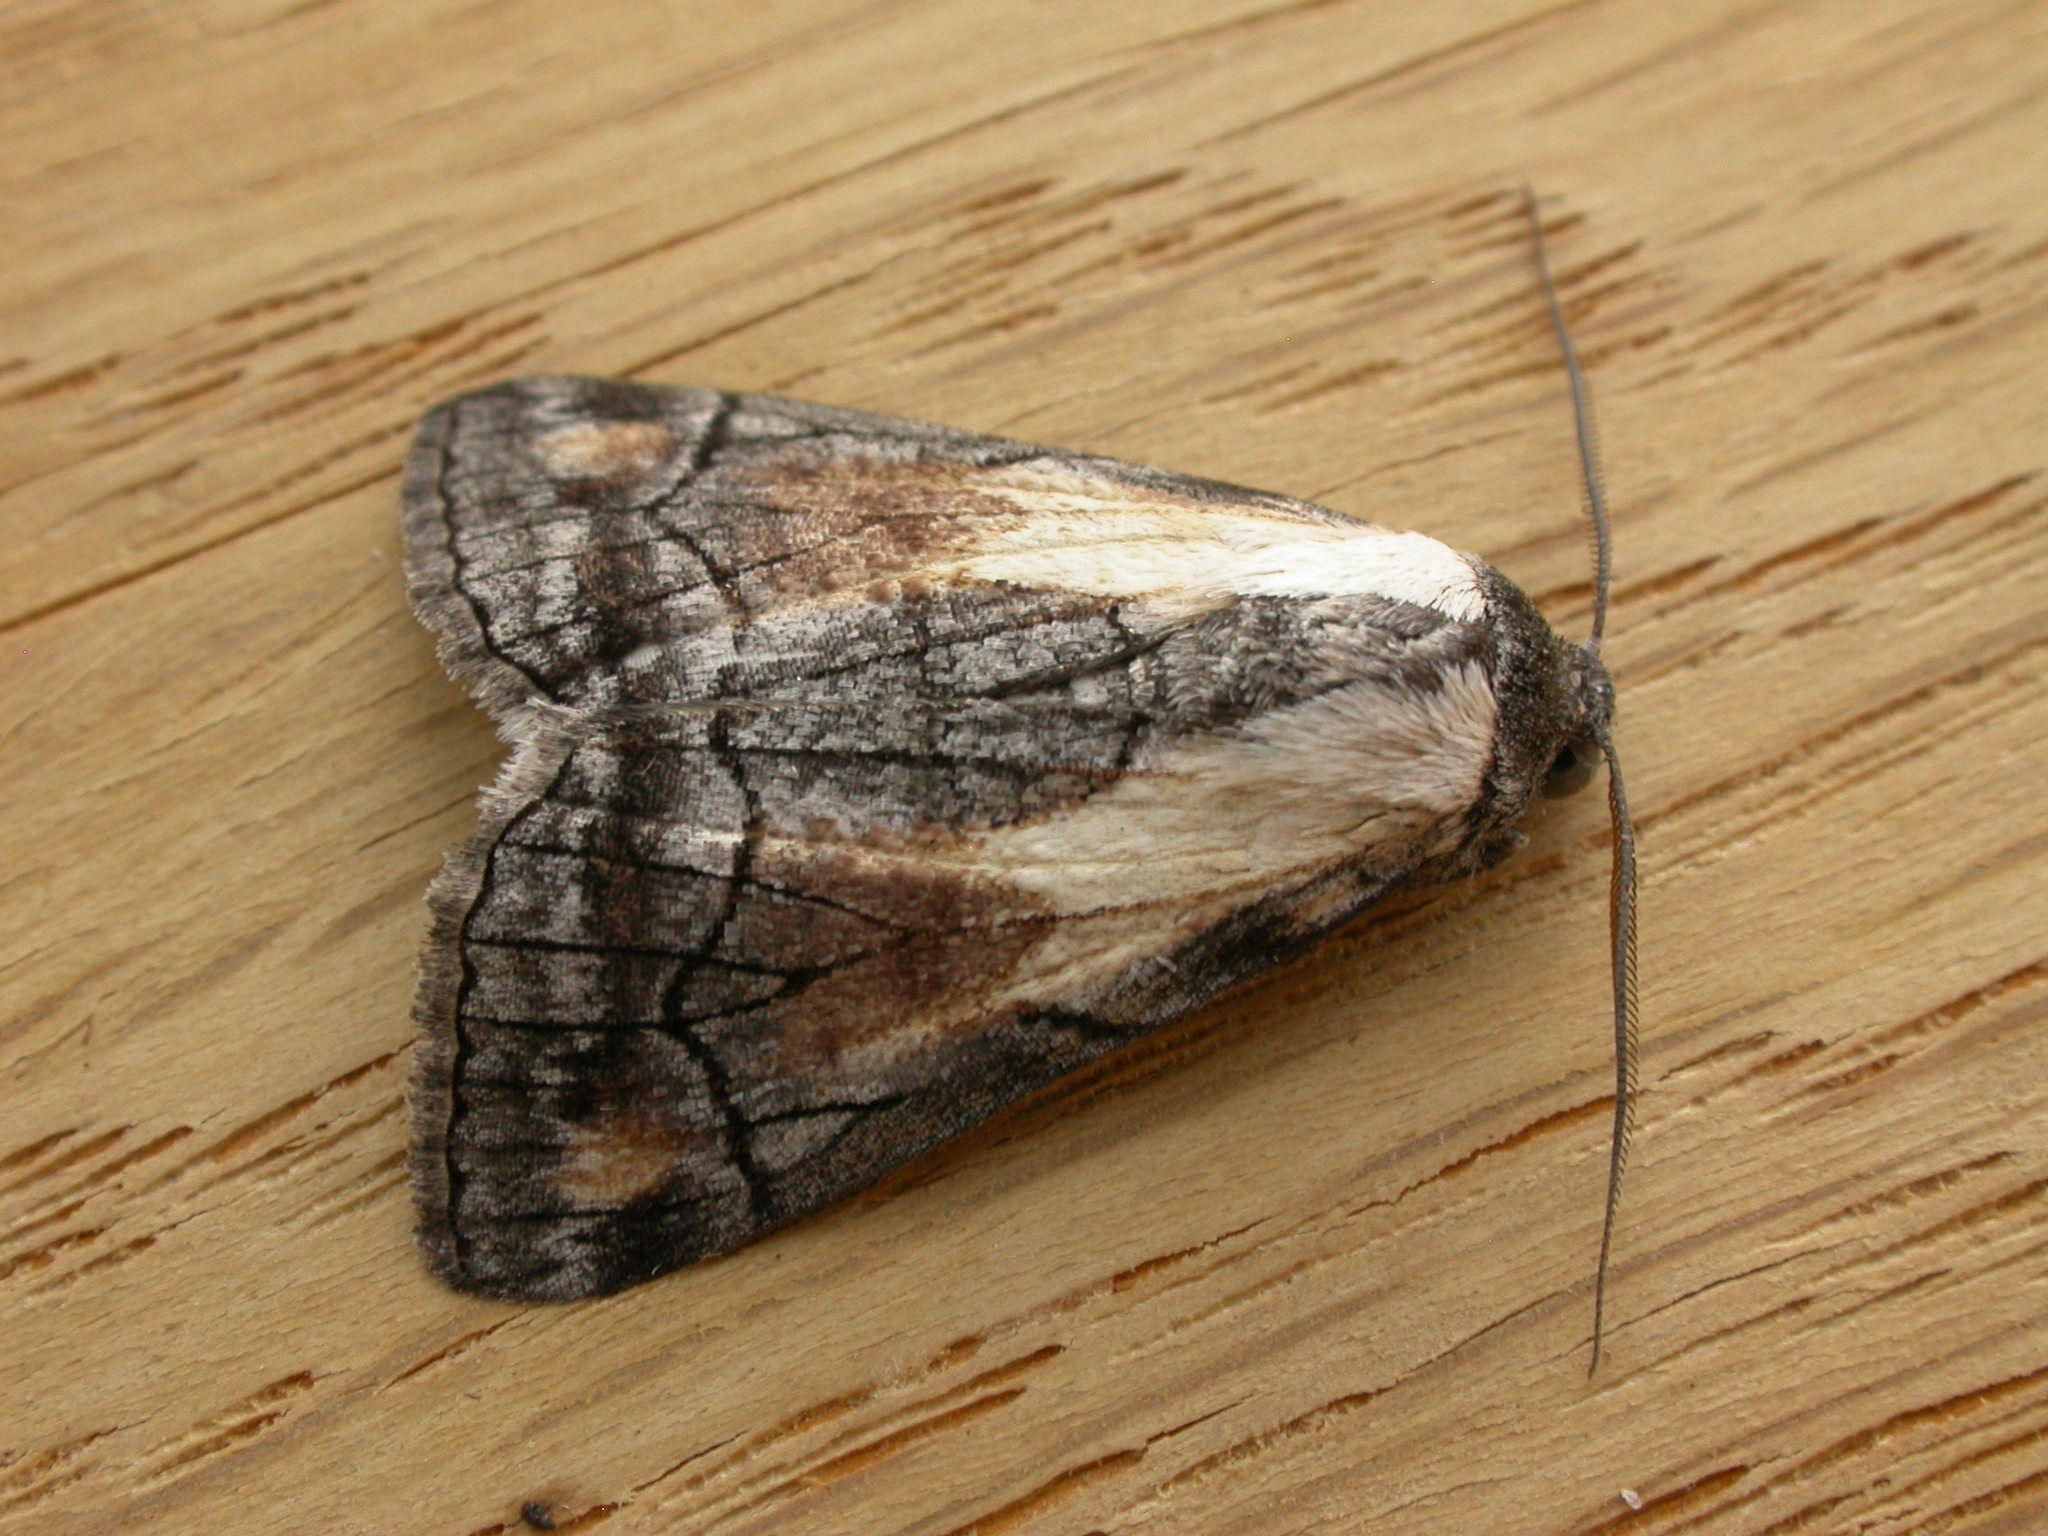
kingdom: Animalia
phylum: Arthropoda
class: Insecta
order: Lepidoptera
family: Geometridae
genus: Stibaractis
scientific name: Stibaractis melanotoxa
